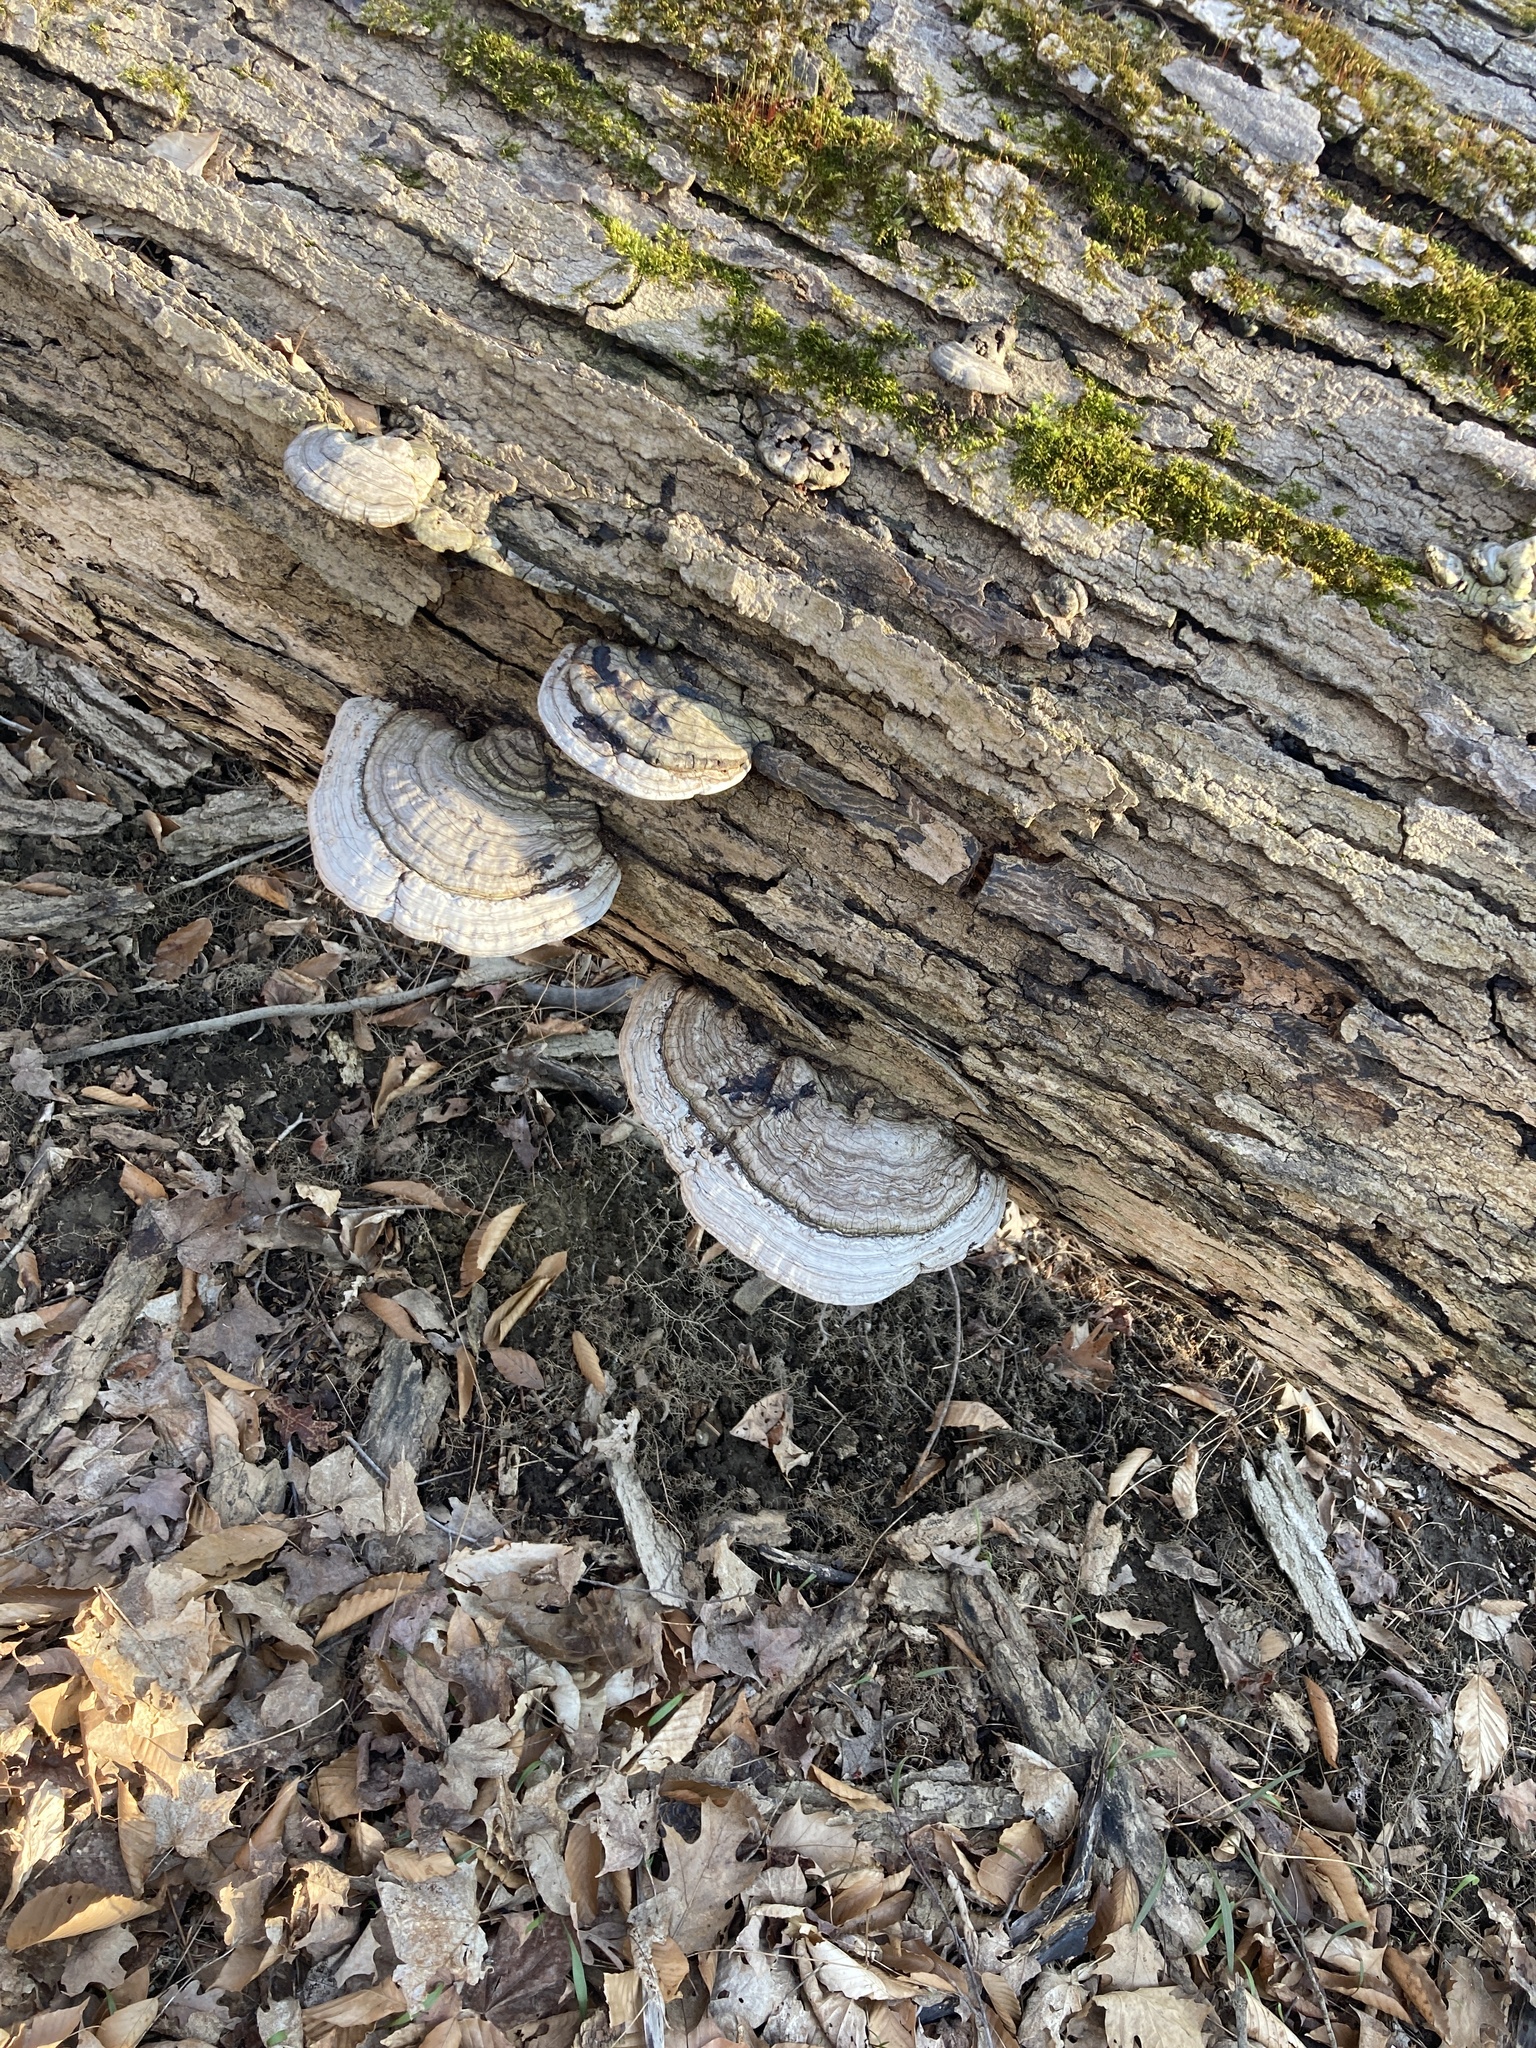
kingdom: Fungi
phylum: Basidiomycota
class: Agaricomycetes
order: Polyporales
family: Polyporaceae
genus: Ganoderma
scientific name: Ganoderma applanatum
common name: Artist's bracket
